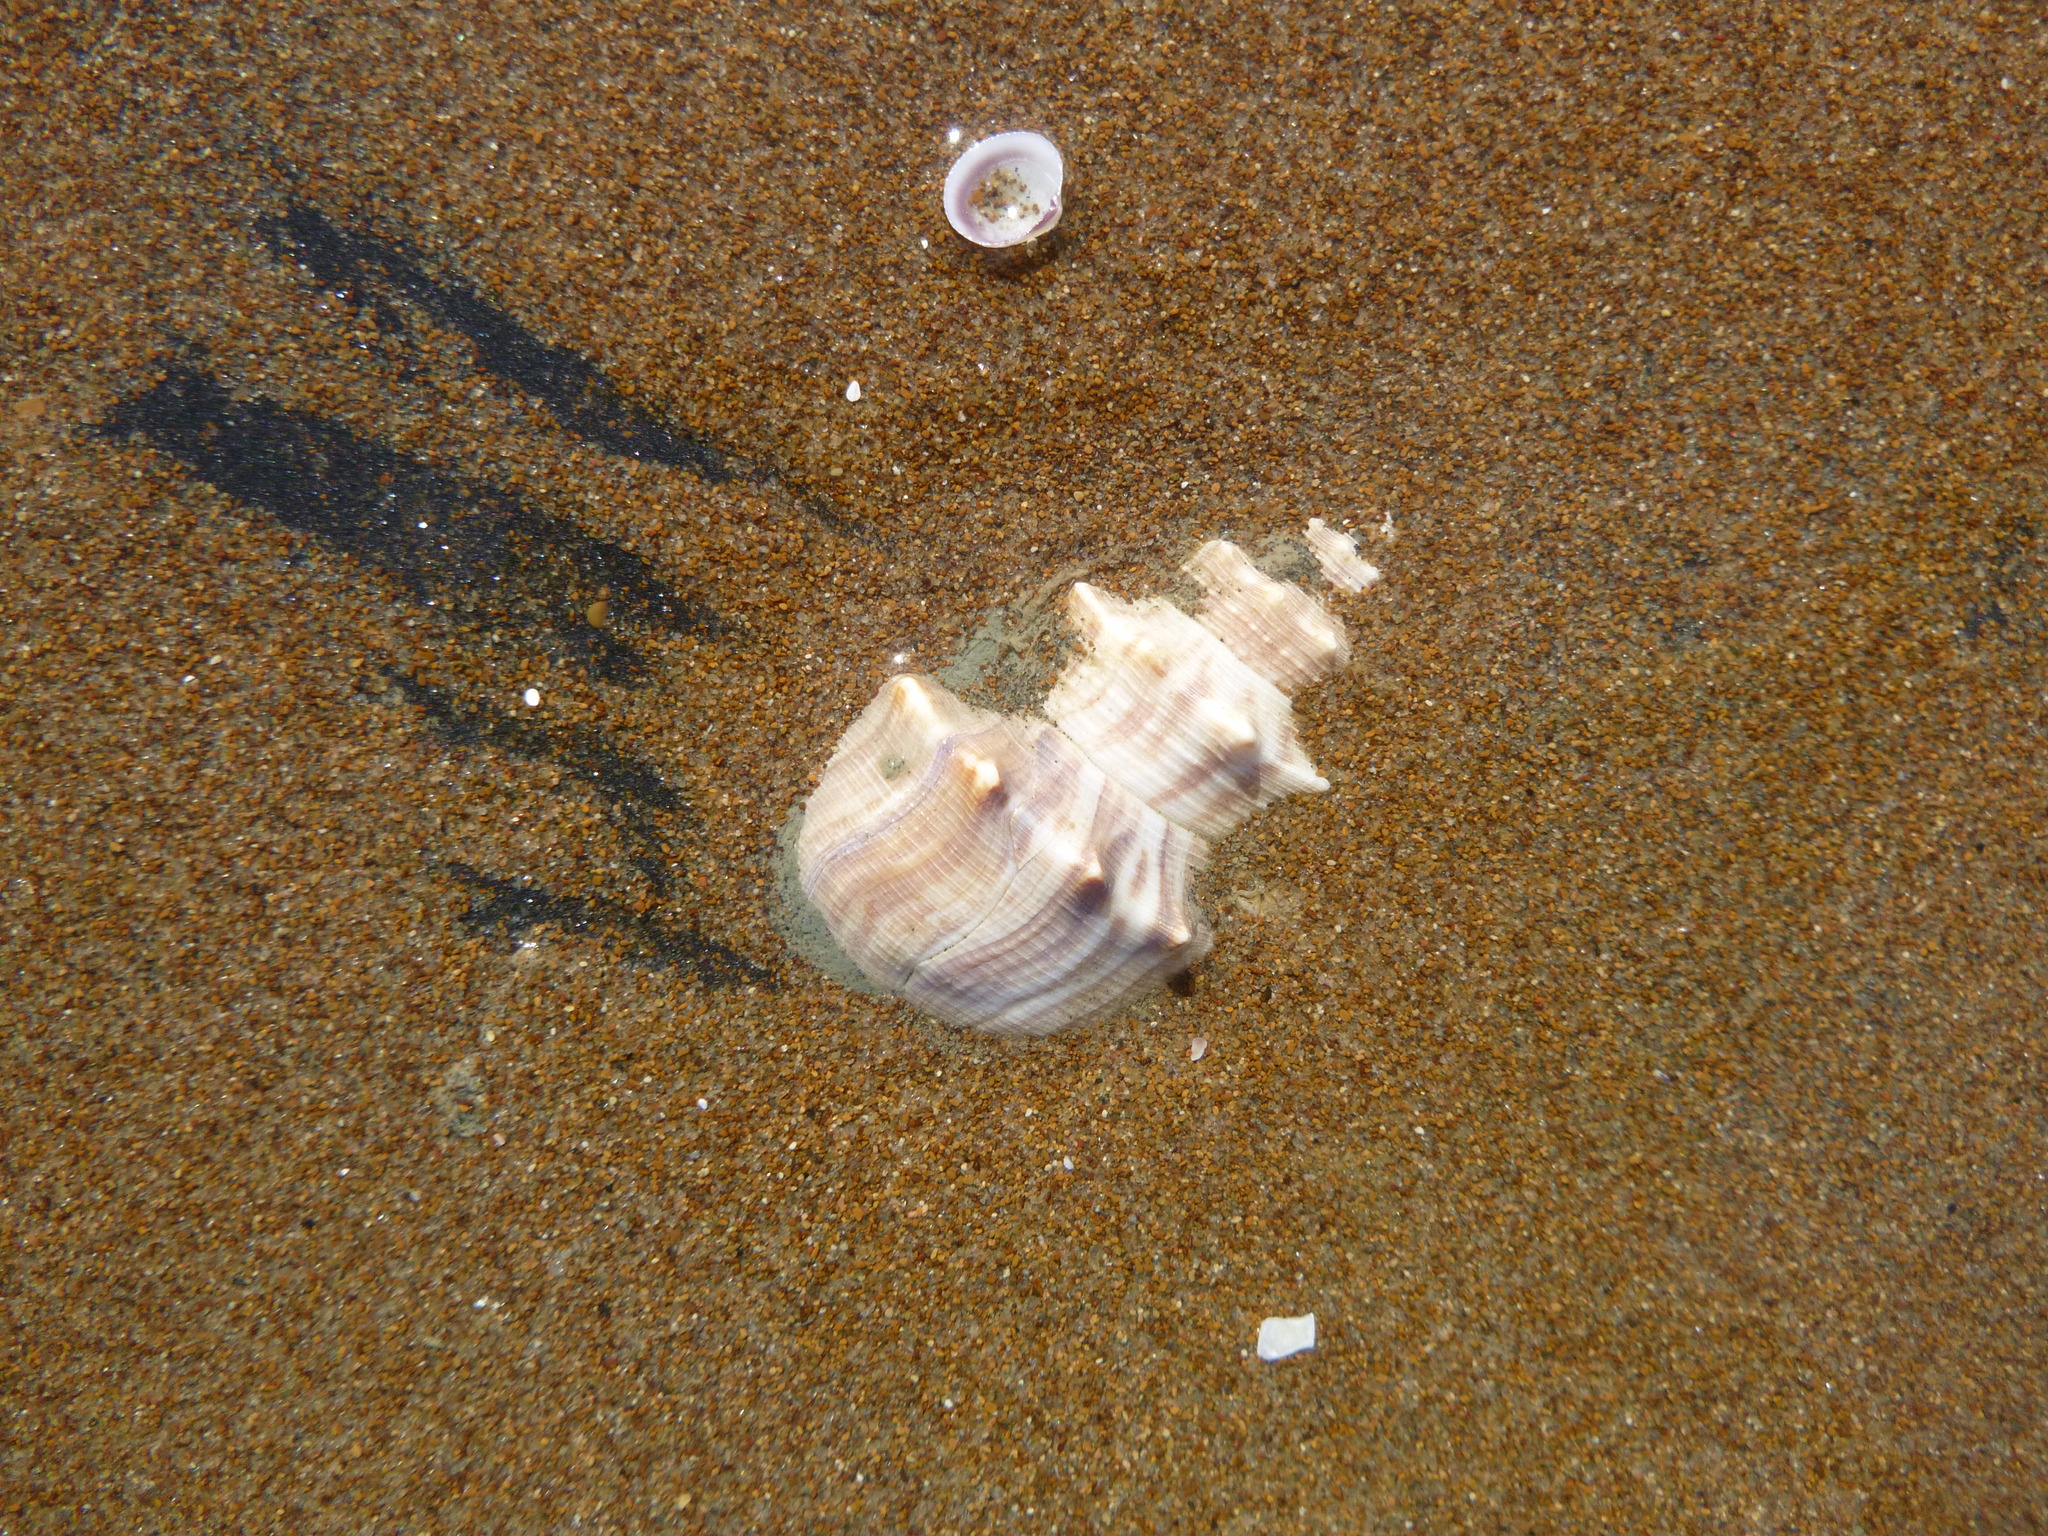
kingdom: Animalia
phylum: Mollusca
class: Gastropoda
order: Littorinimorpha
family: Struthiolariidae
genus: Struthiolaria
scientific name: Struthiolaria papulosa
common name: Large ostrich foot
